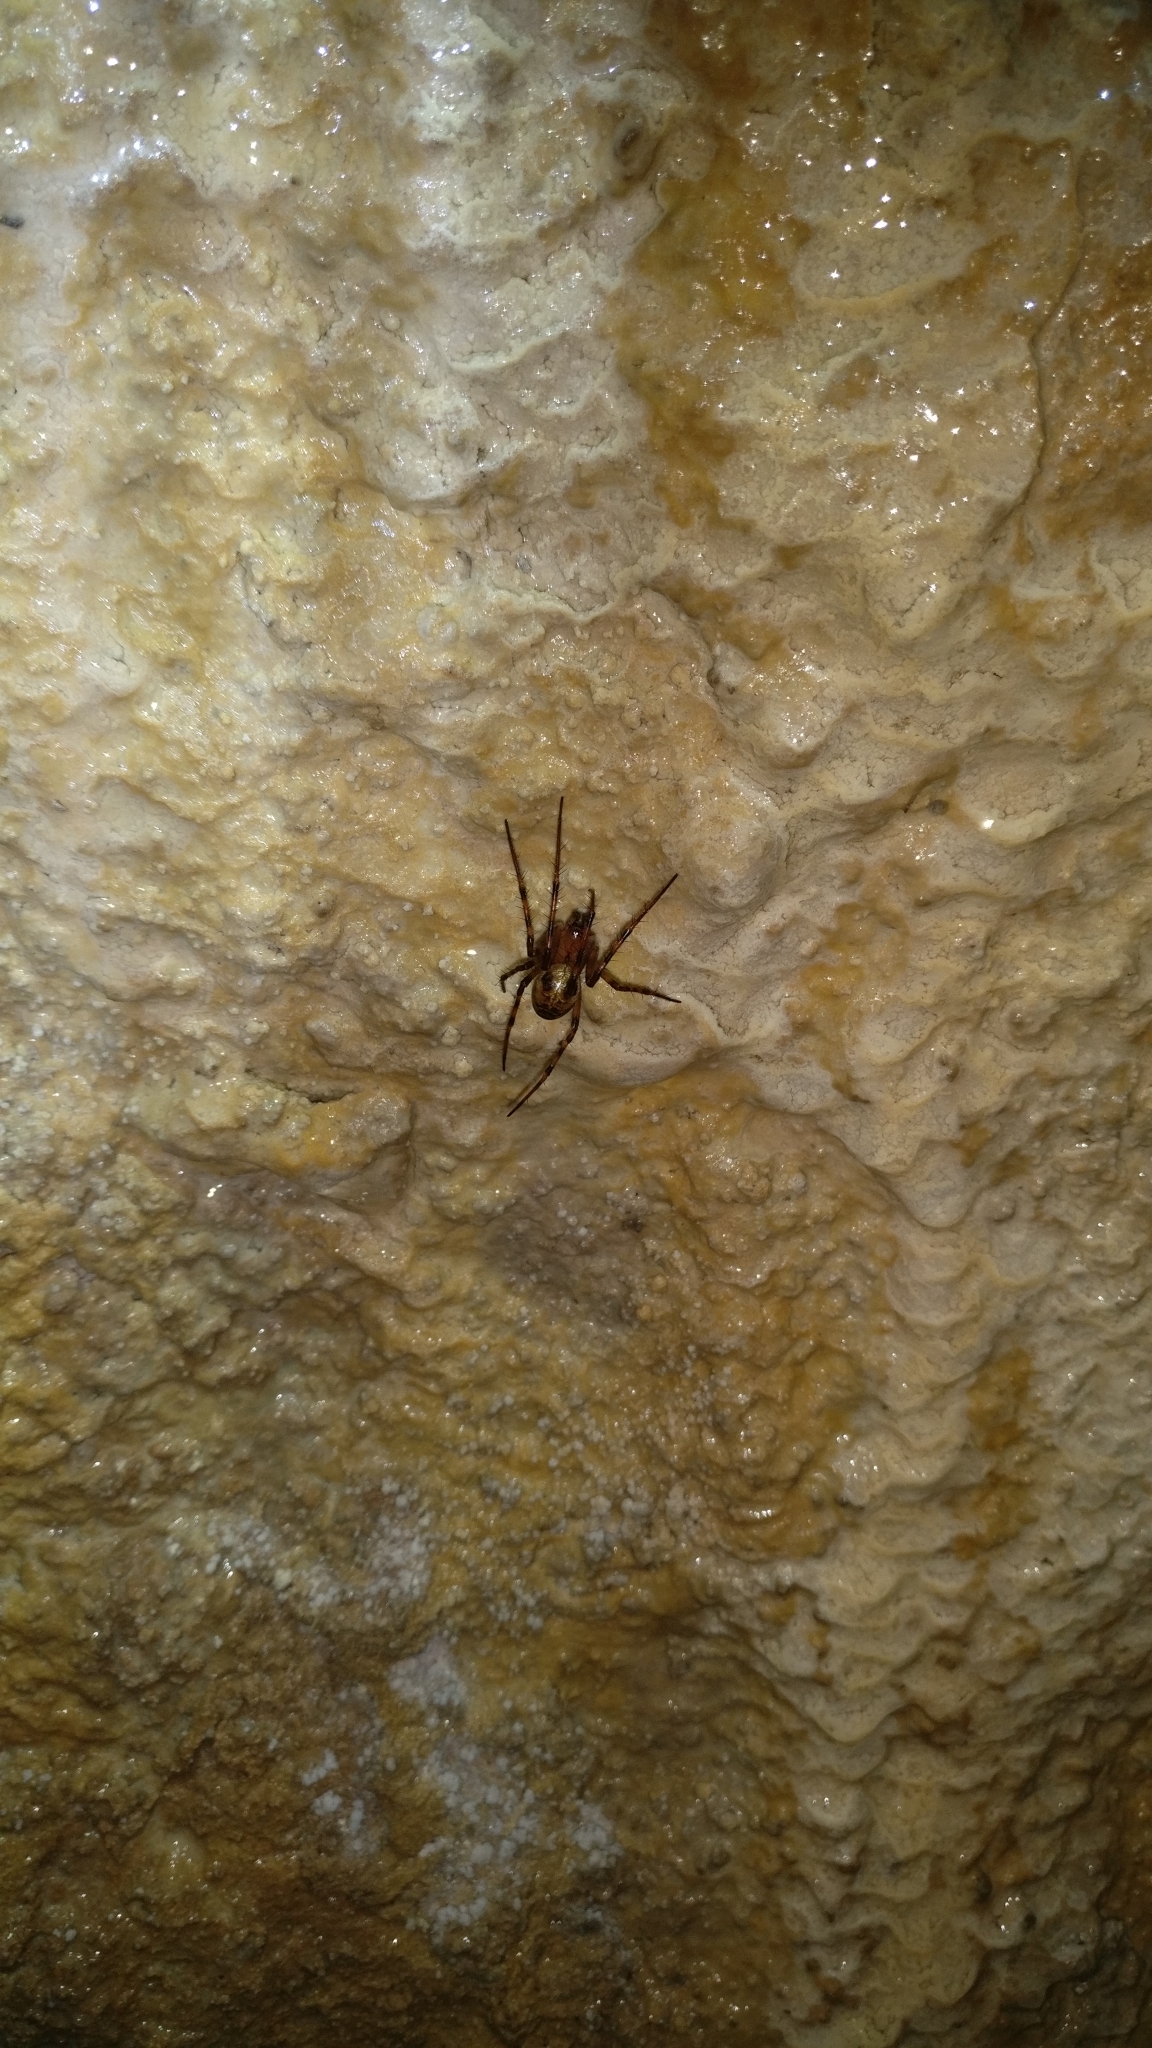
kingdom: Animalia
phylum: Arthropoda
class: Arachnida
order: Araneae
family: Tetragnathidae
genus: Meta
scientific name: Meta menardi
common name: Cave spider
